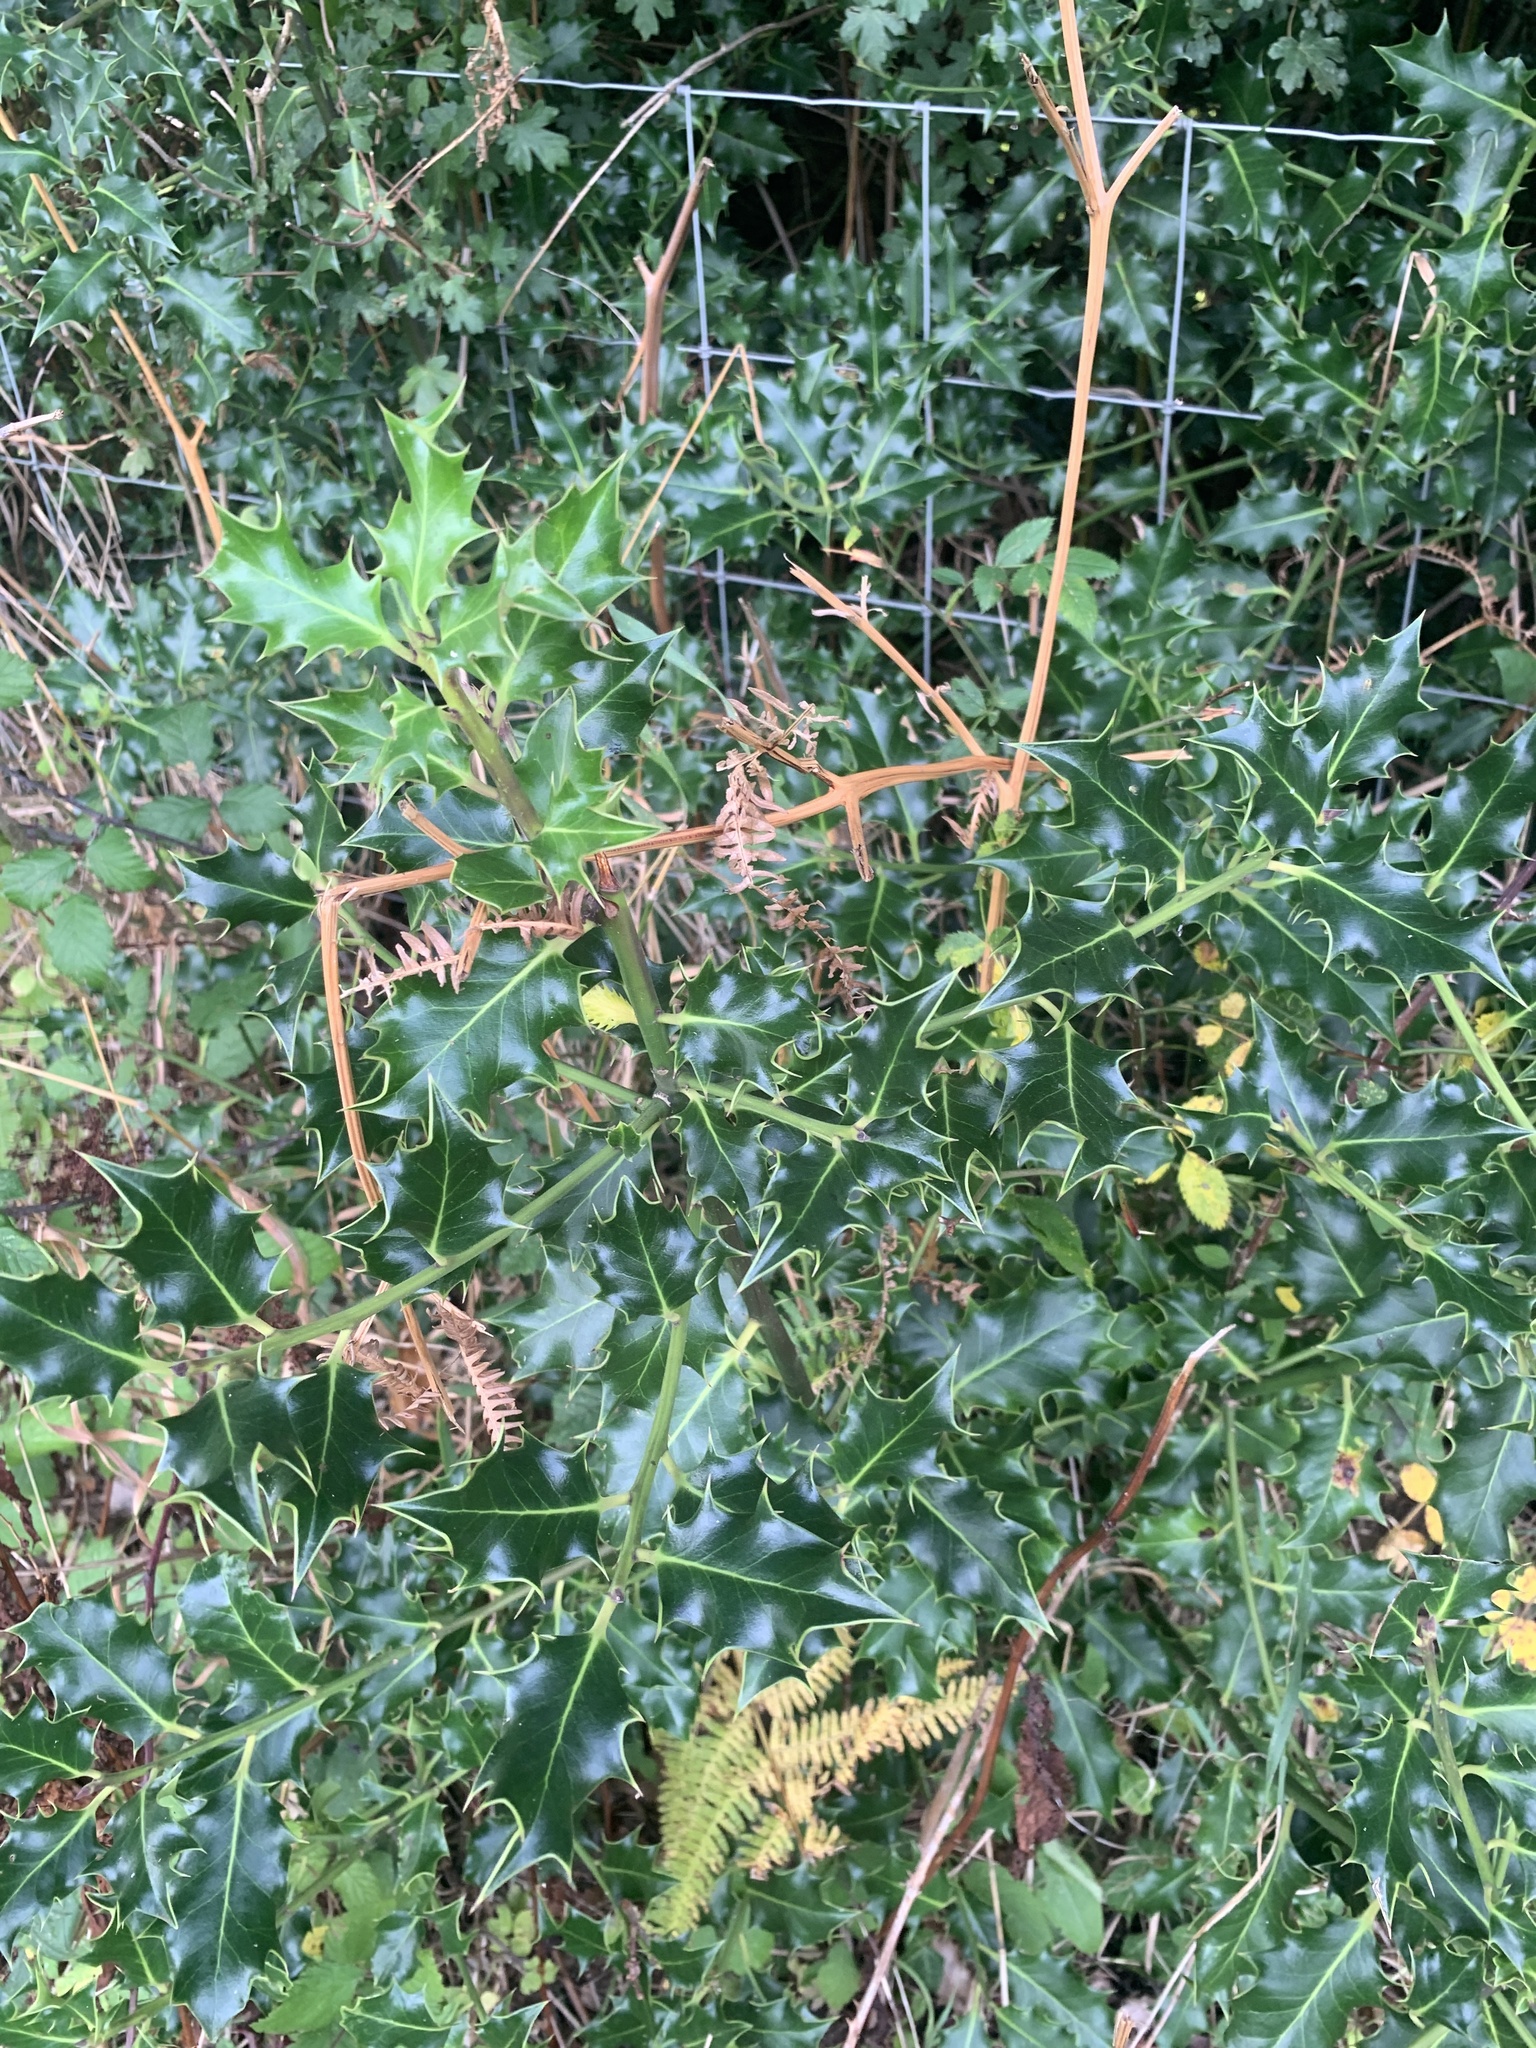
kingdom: Plantae
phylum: Tracheophyta
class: Magnoliopsida
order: Aquifoliales
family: Aquifoliaceae
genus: Ilex
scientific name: Ilex aquifolium
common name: English holly
